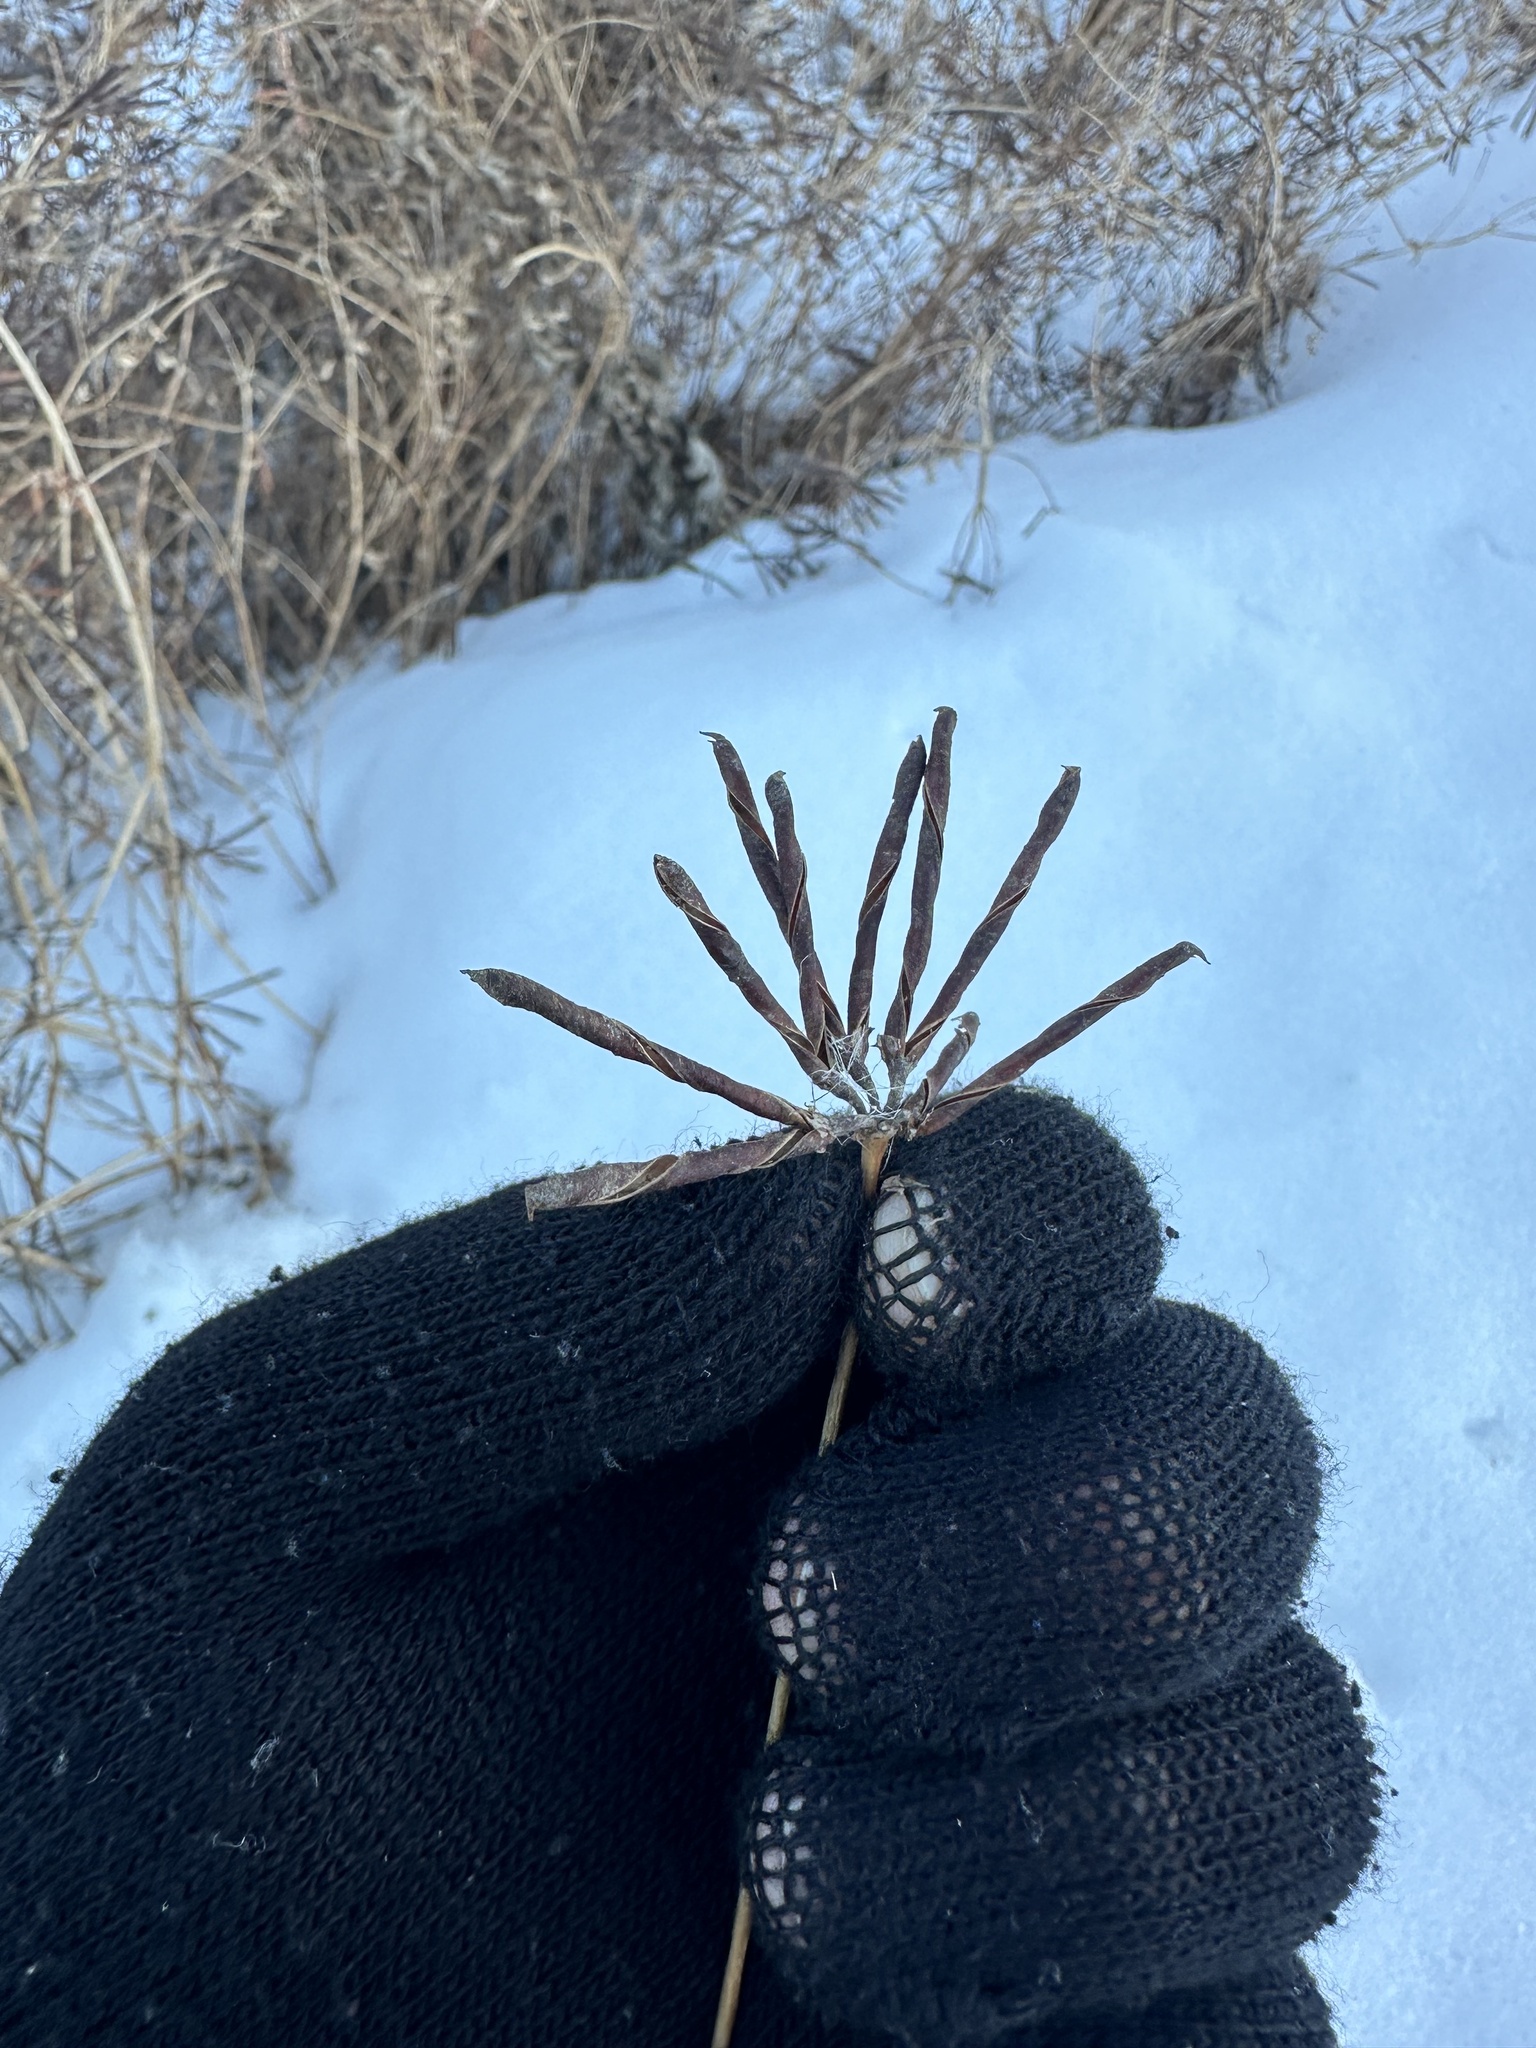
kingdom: Plantae
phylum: Tracheophyta
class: Magnoliopsida
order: Fabales
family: Fabaceae
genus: Lotus
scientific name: Lotus corniculatus
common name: Common bird's-foot-trefoil
